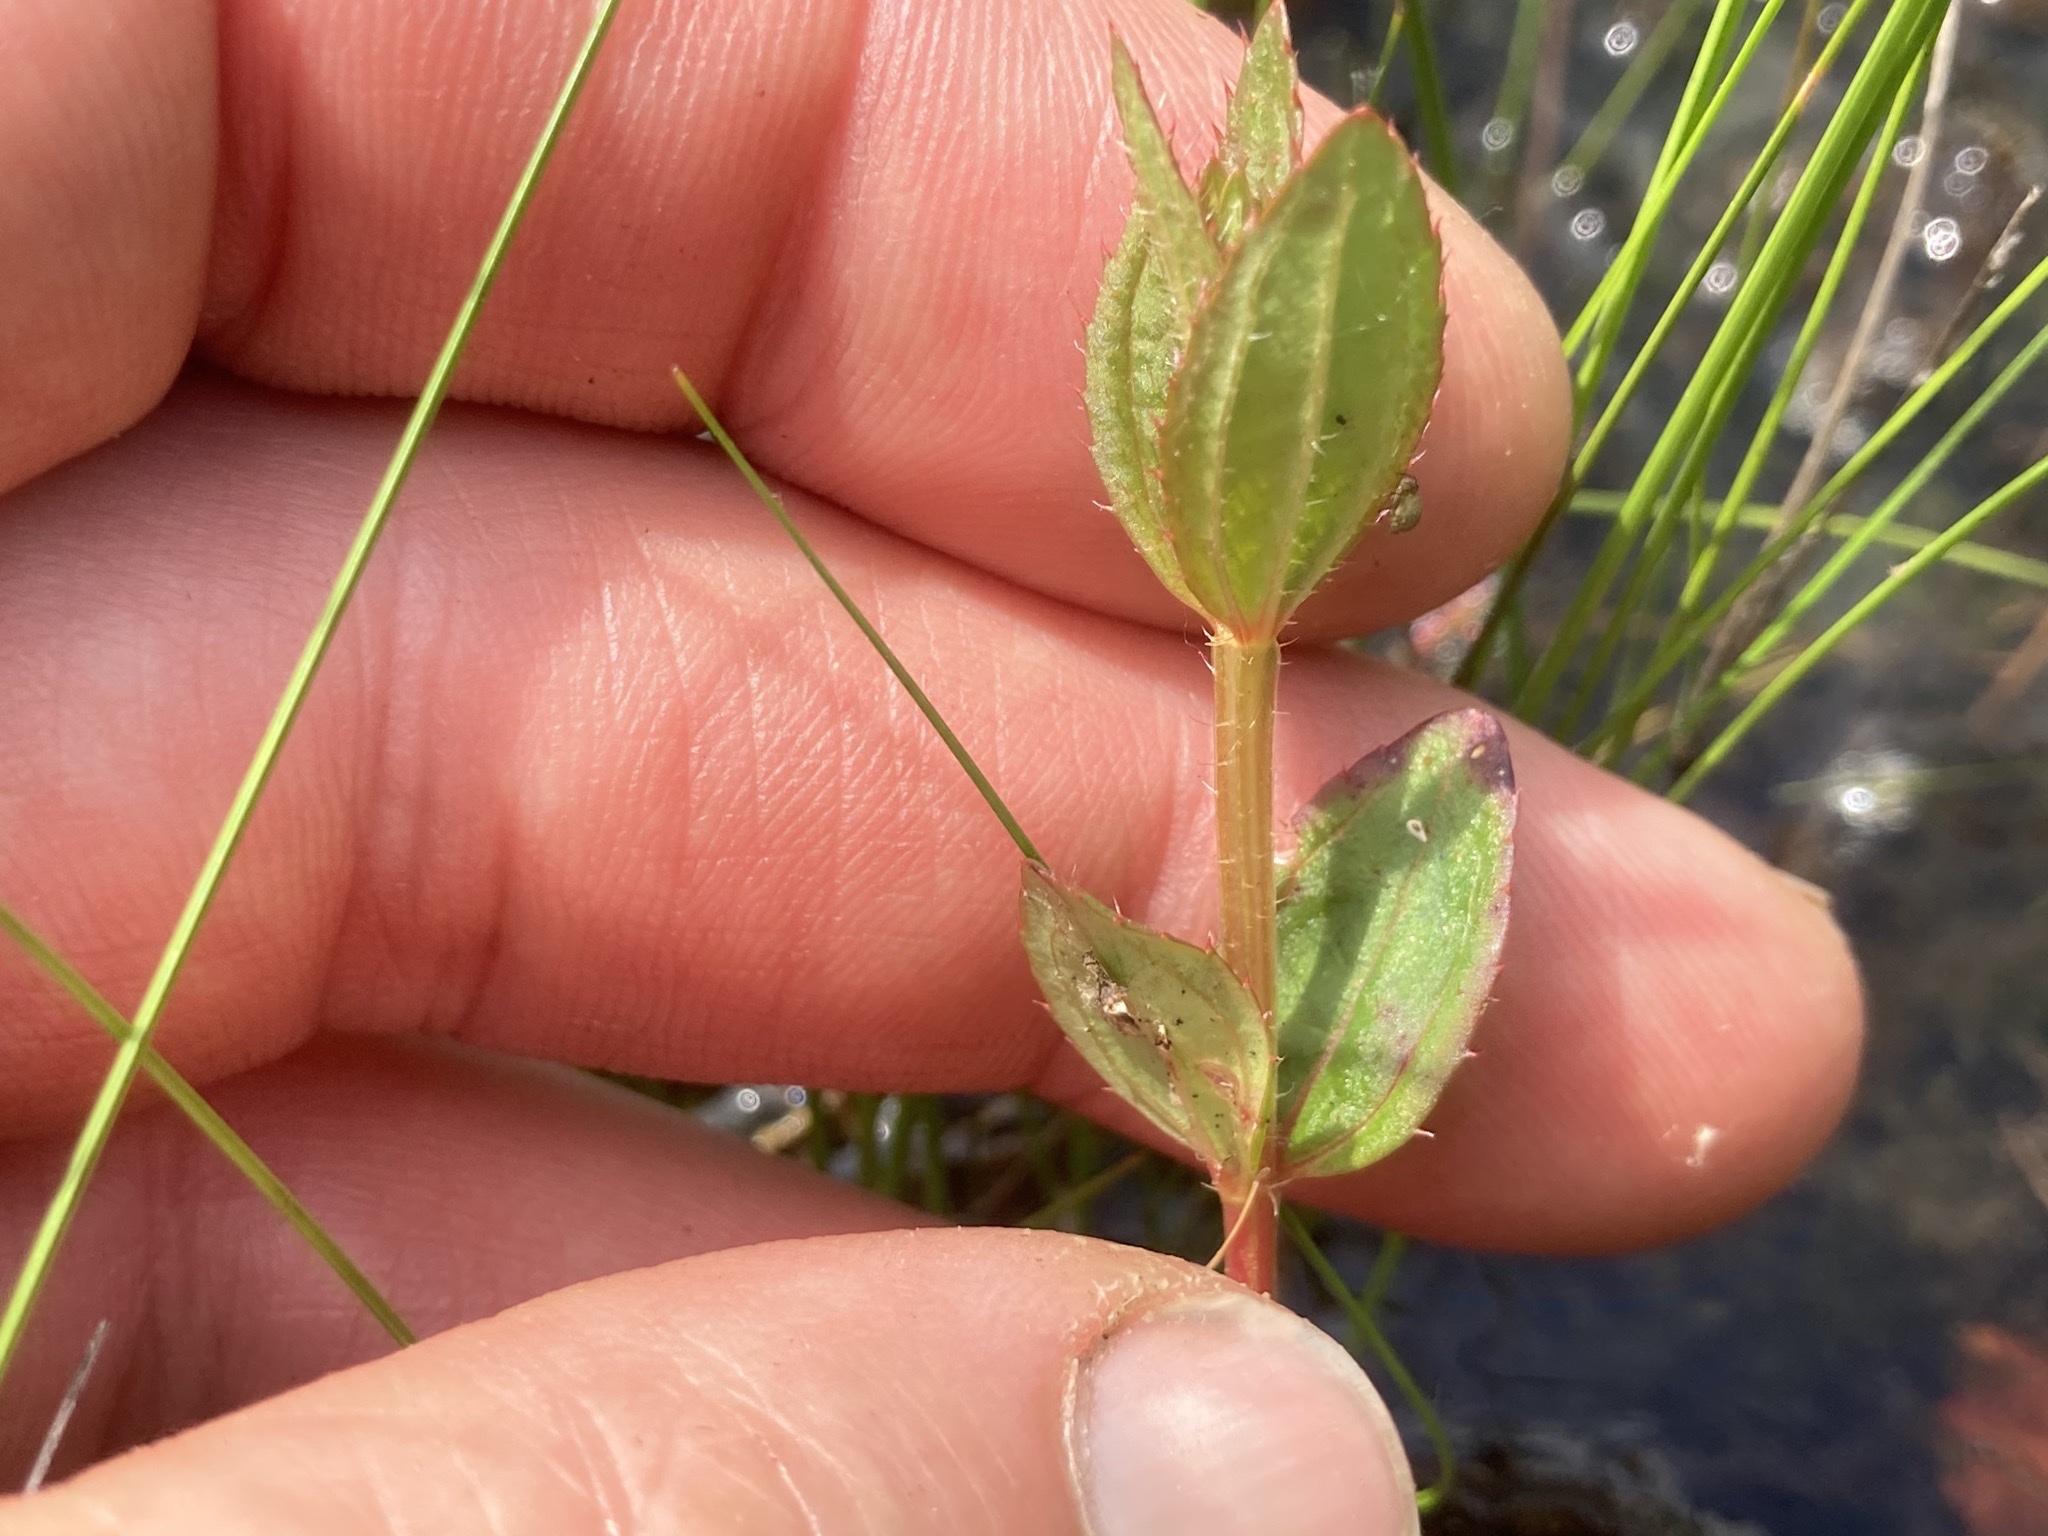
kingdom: Plantae
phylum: Tracheophyta
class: Magnoliopsida
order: Myrtales
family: Melastomataceae
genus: Rhexia
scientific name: Rhexia virginica
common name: Common meadow beauty
